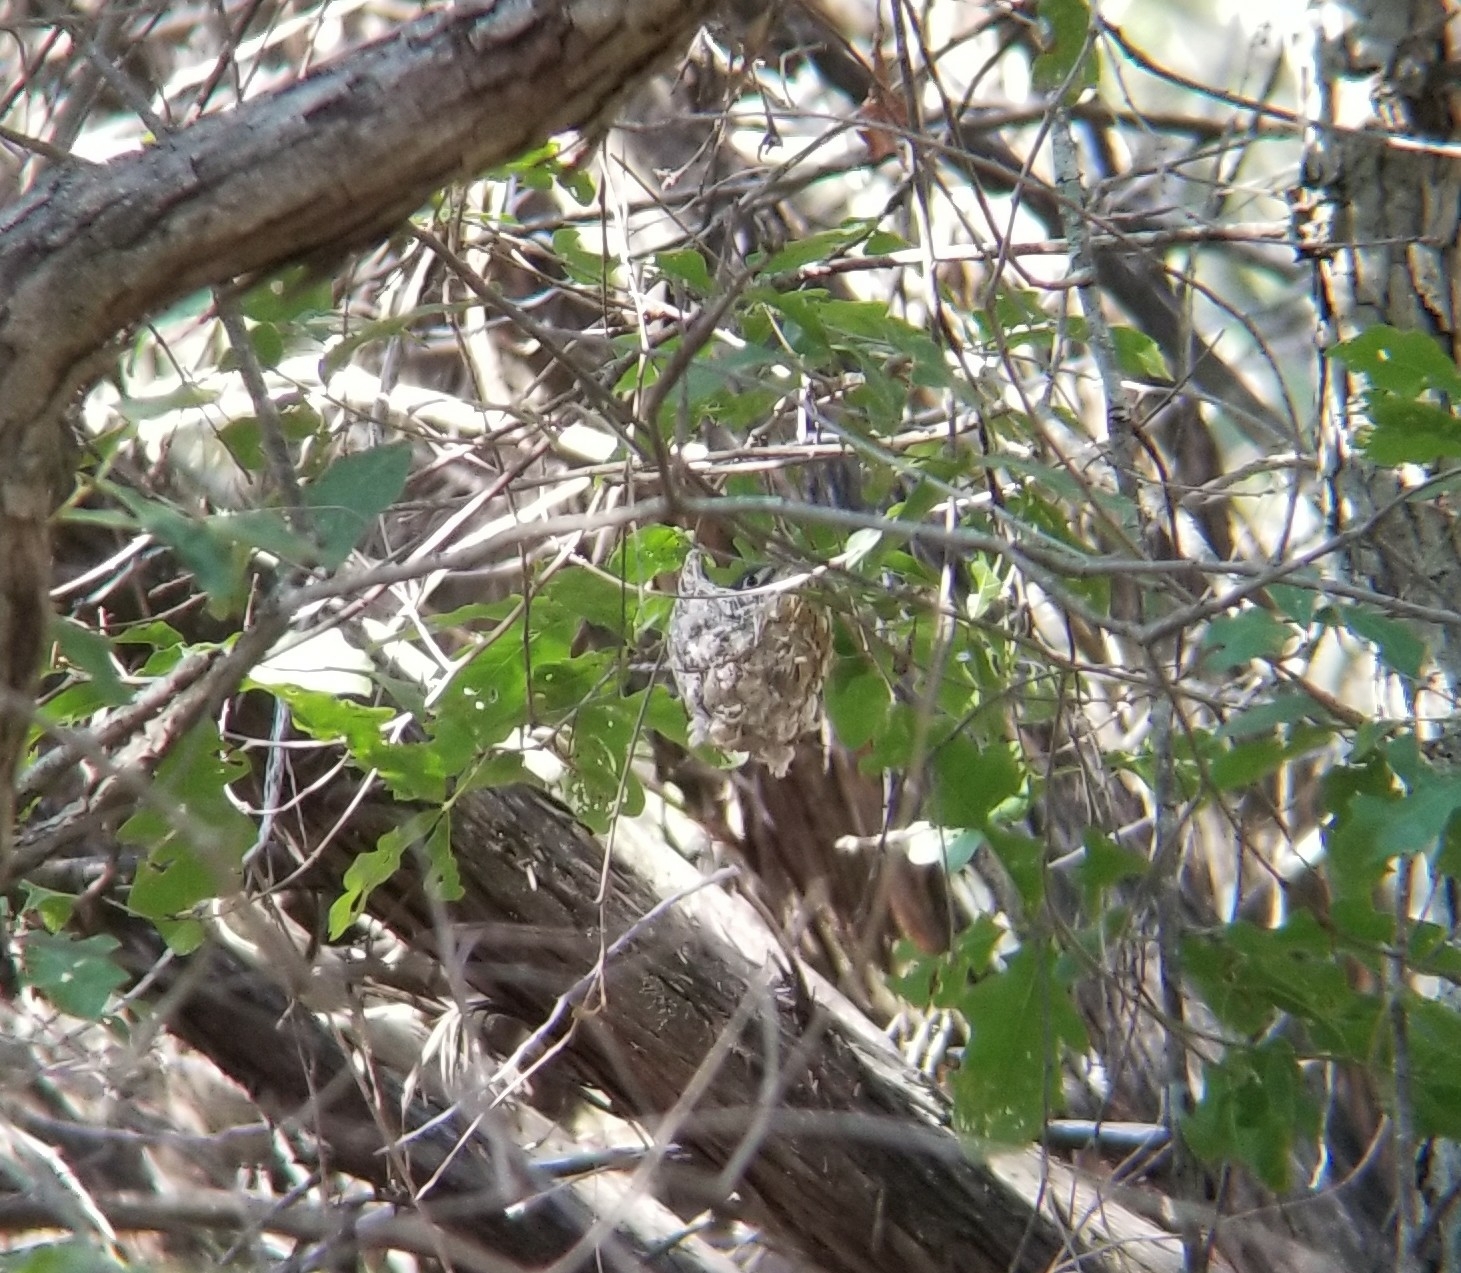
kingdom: Animalia
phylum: Chordata
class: Aves
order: Passeriformes
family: Vireonidae
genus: Vireo
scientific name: Vireo atricapilla
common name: Black-capped vireo
